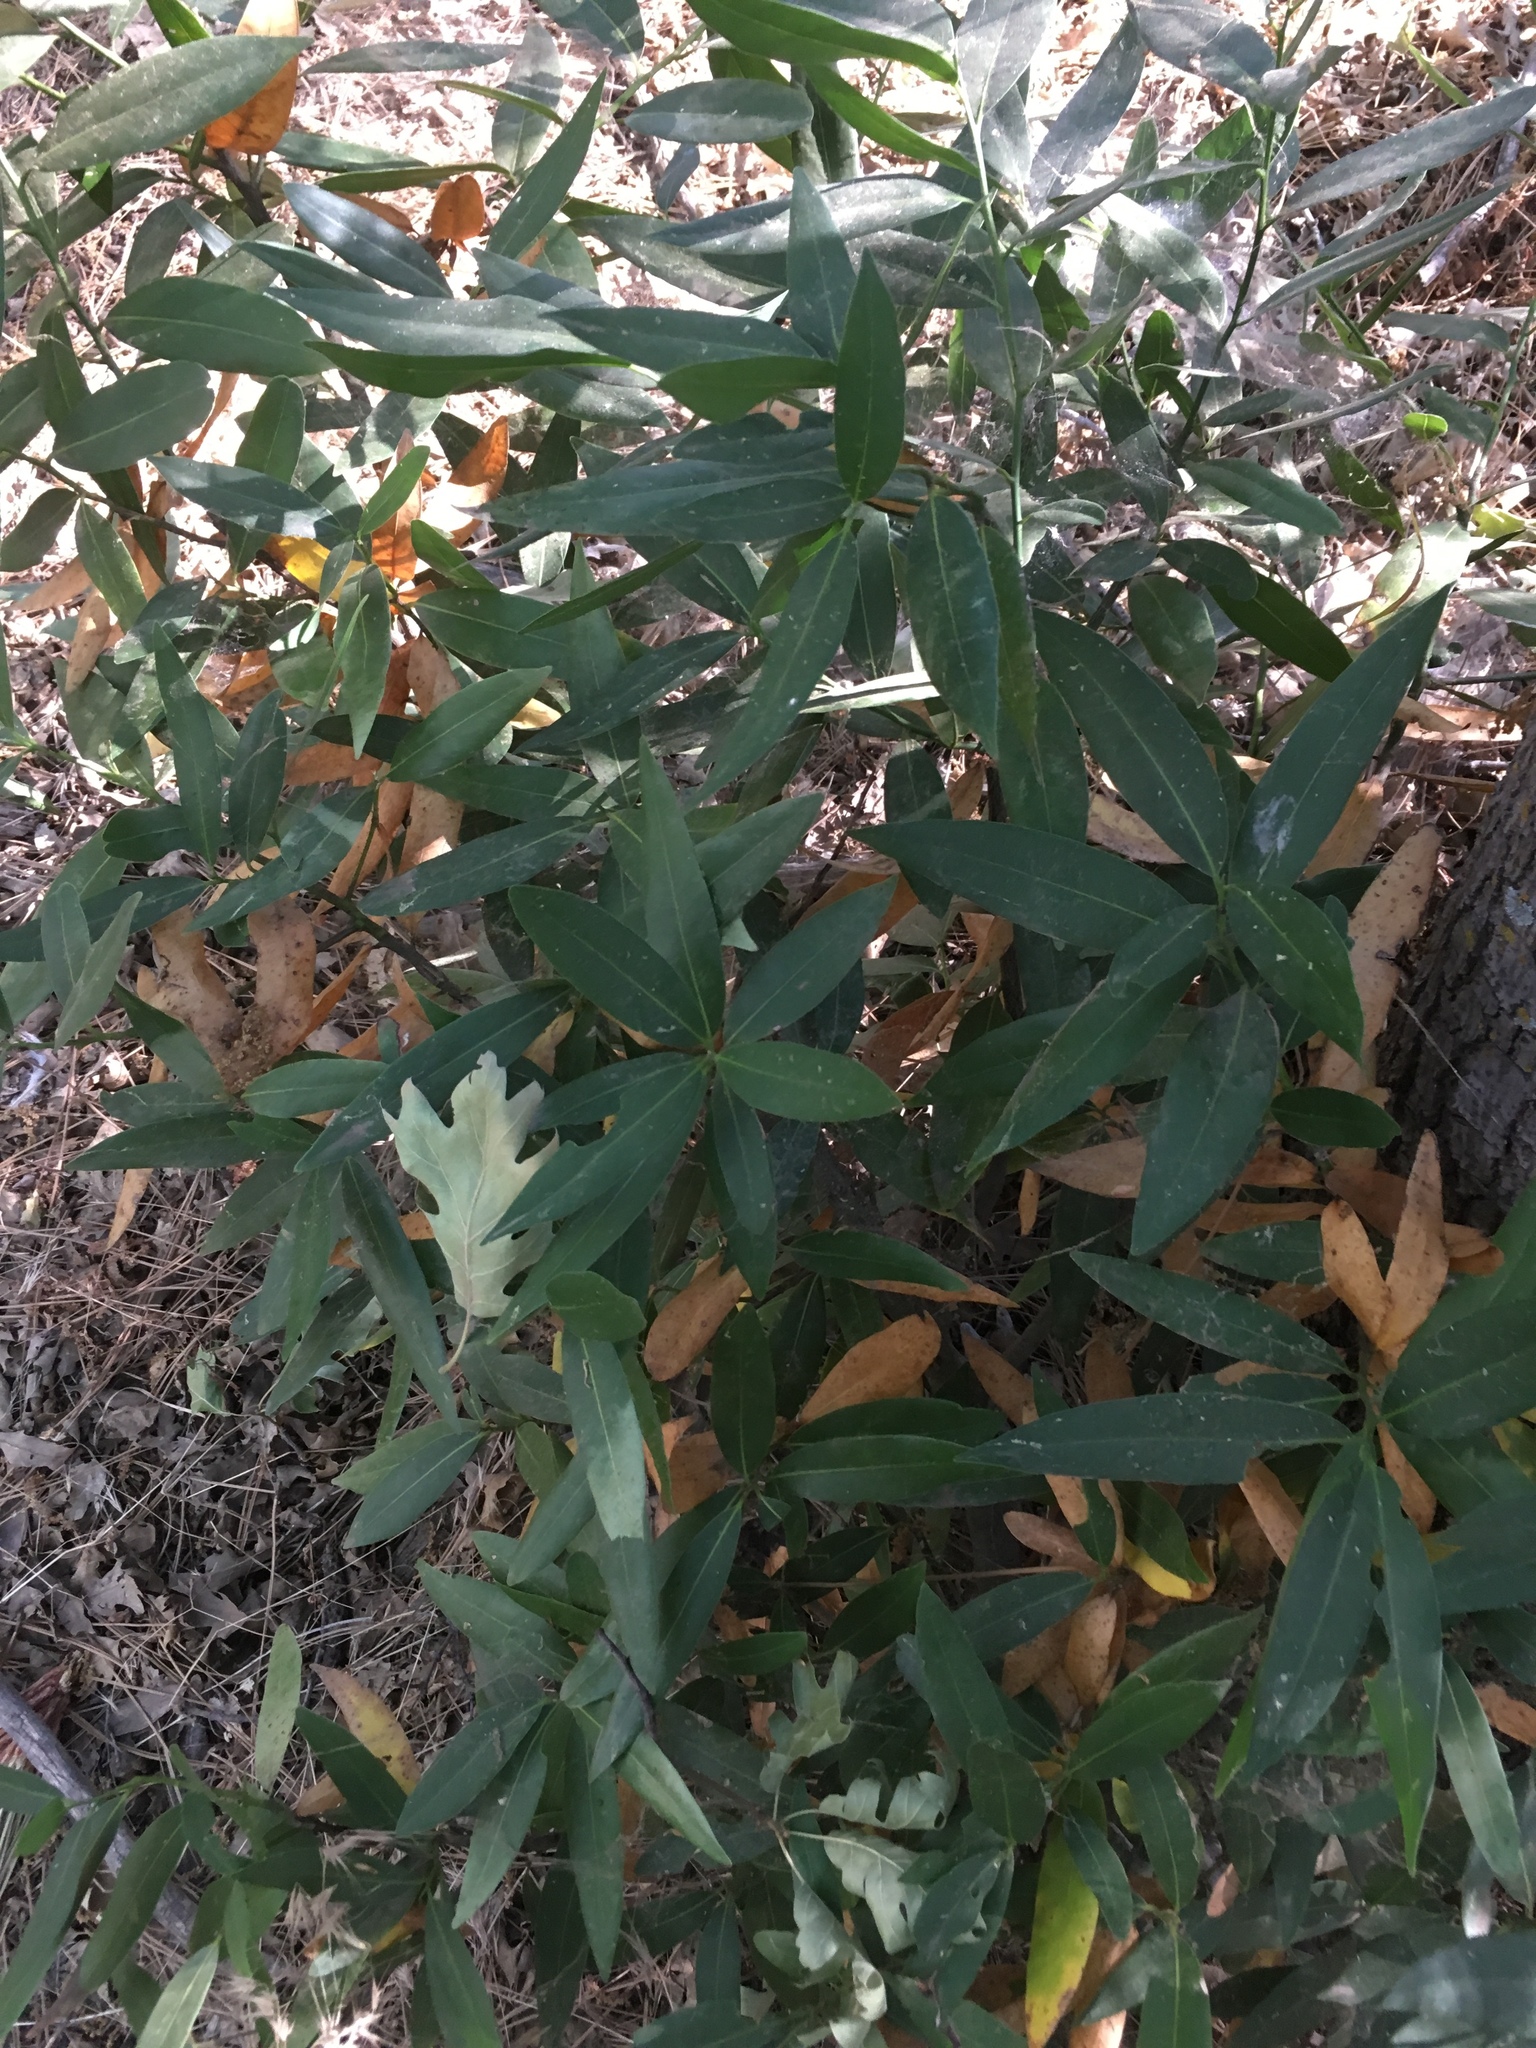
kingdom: Plantae
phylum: Tracheophyta
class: Magnoliopsida
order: Laurales
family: Lauraceae
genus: Umbellularia
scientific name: Umbellularia californica
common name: California bay
